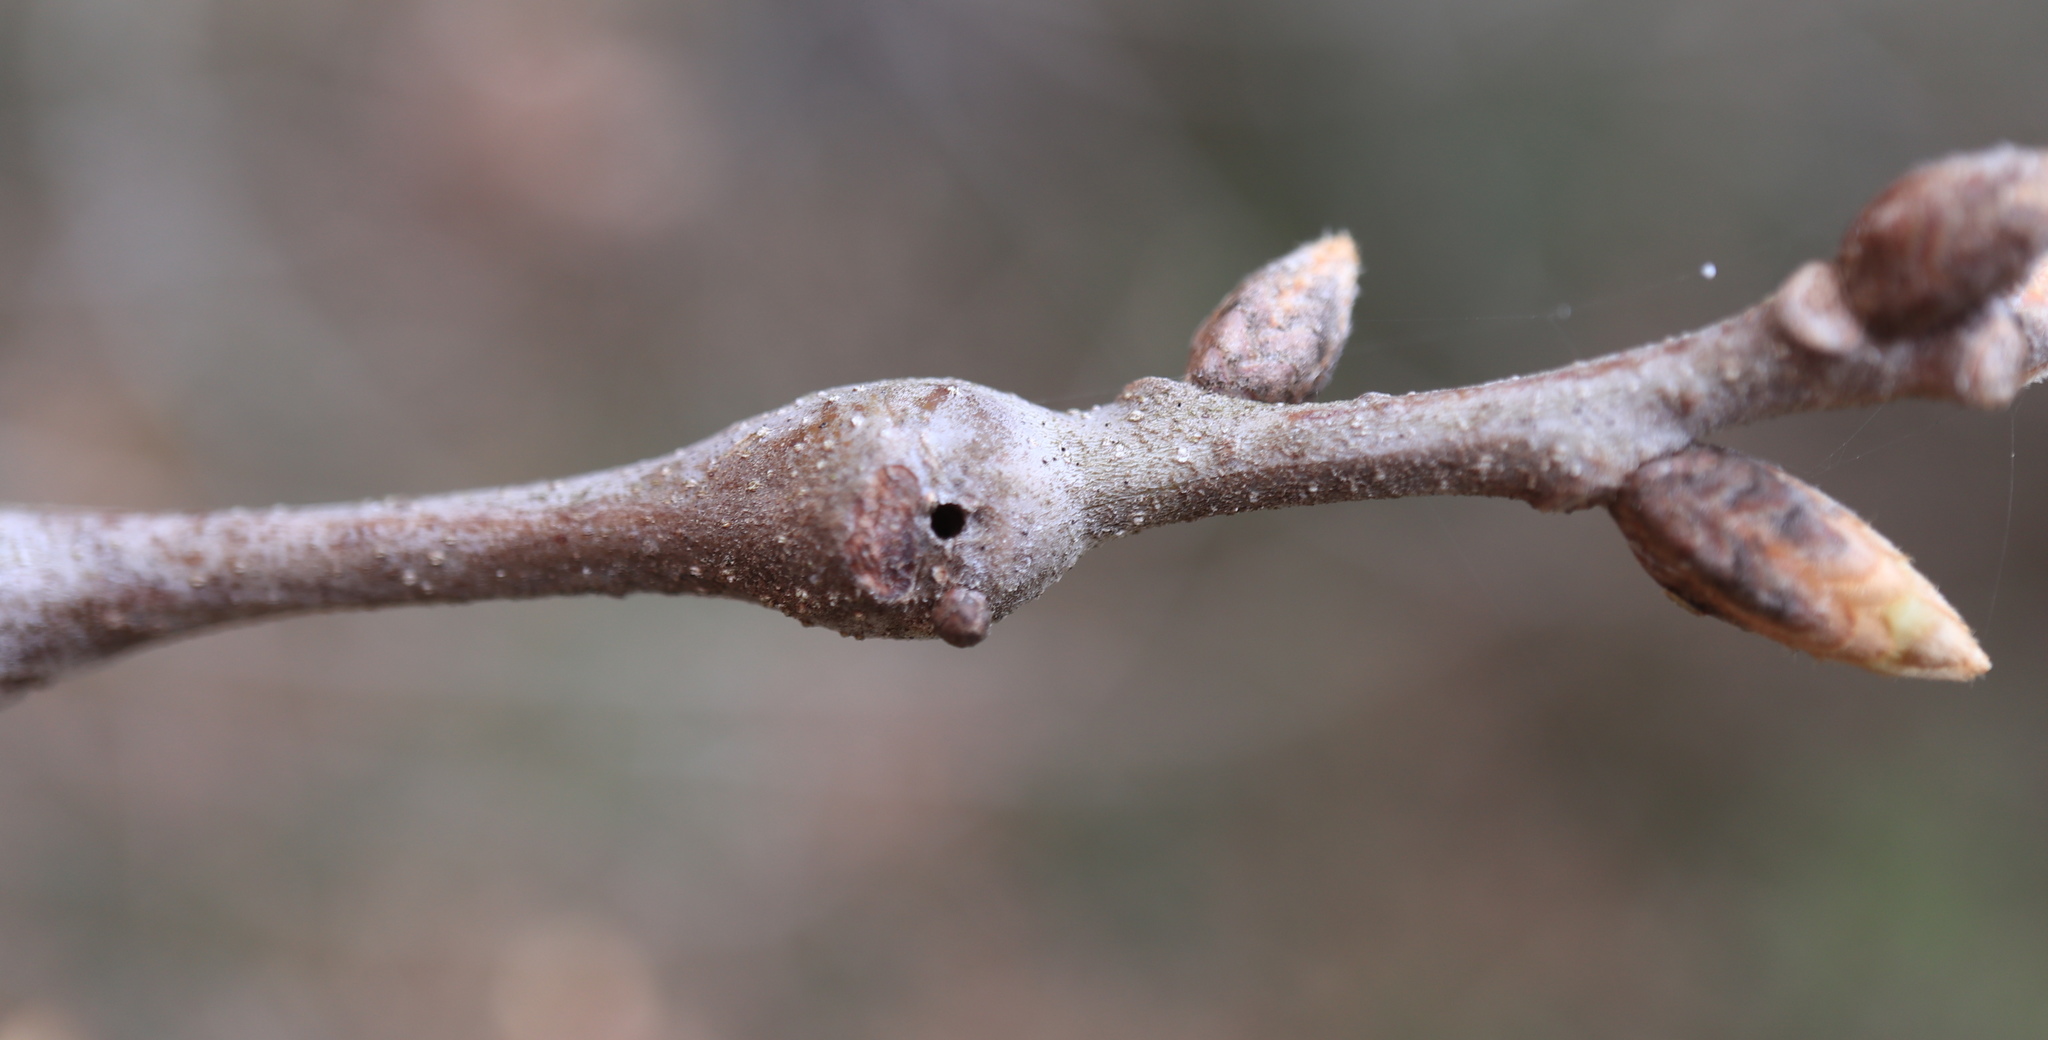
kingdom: Animalia
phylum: Arthropoda
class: Insecta
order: Hymenoptera
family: Cynipidae
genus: Zapatella
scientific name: Zapatella quercusphellos
